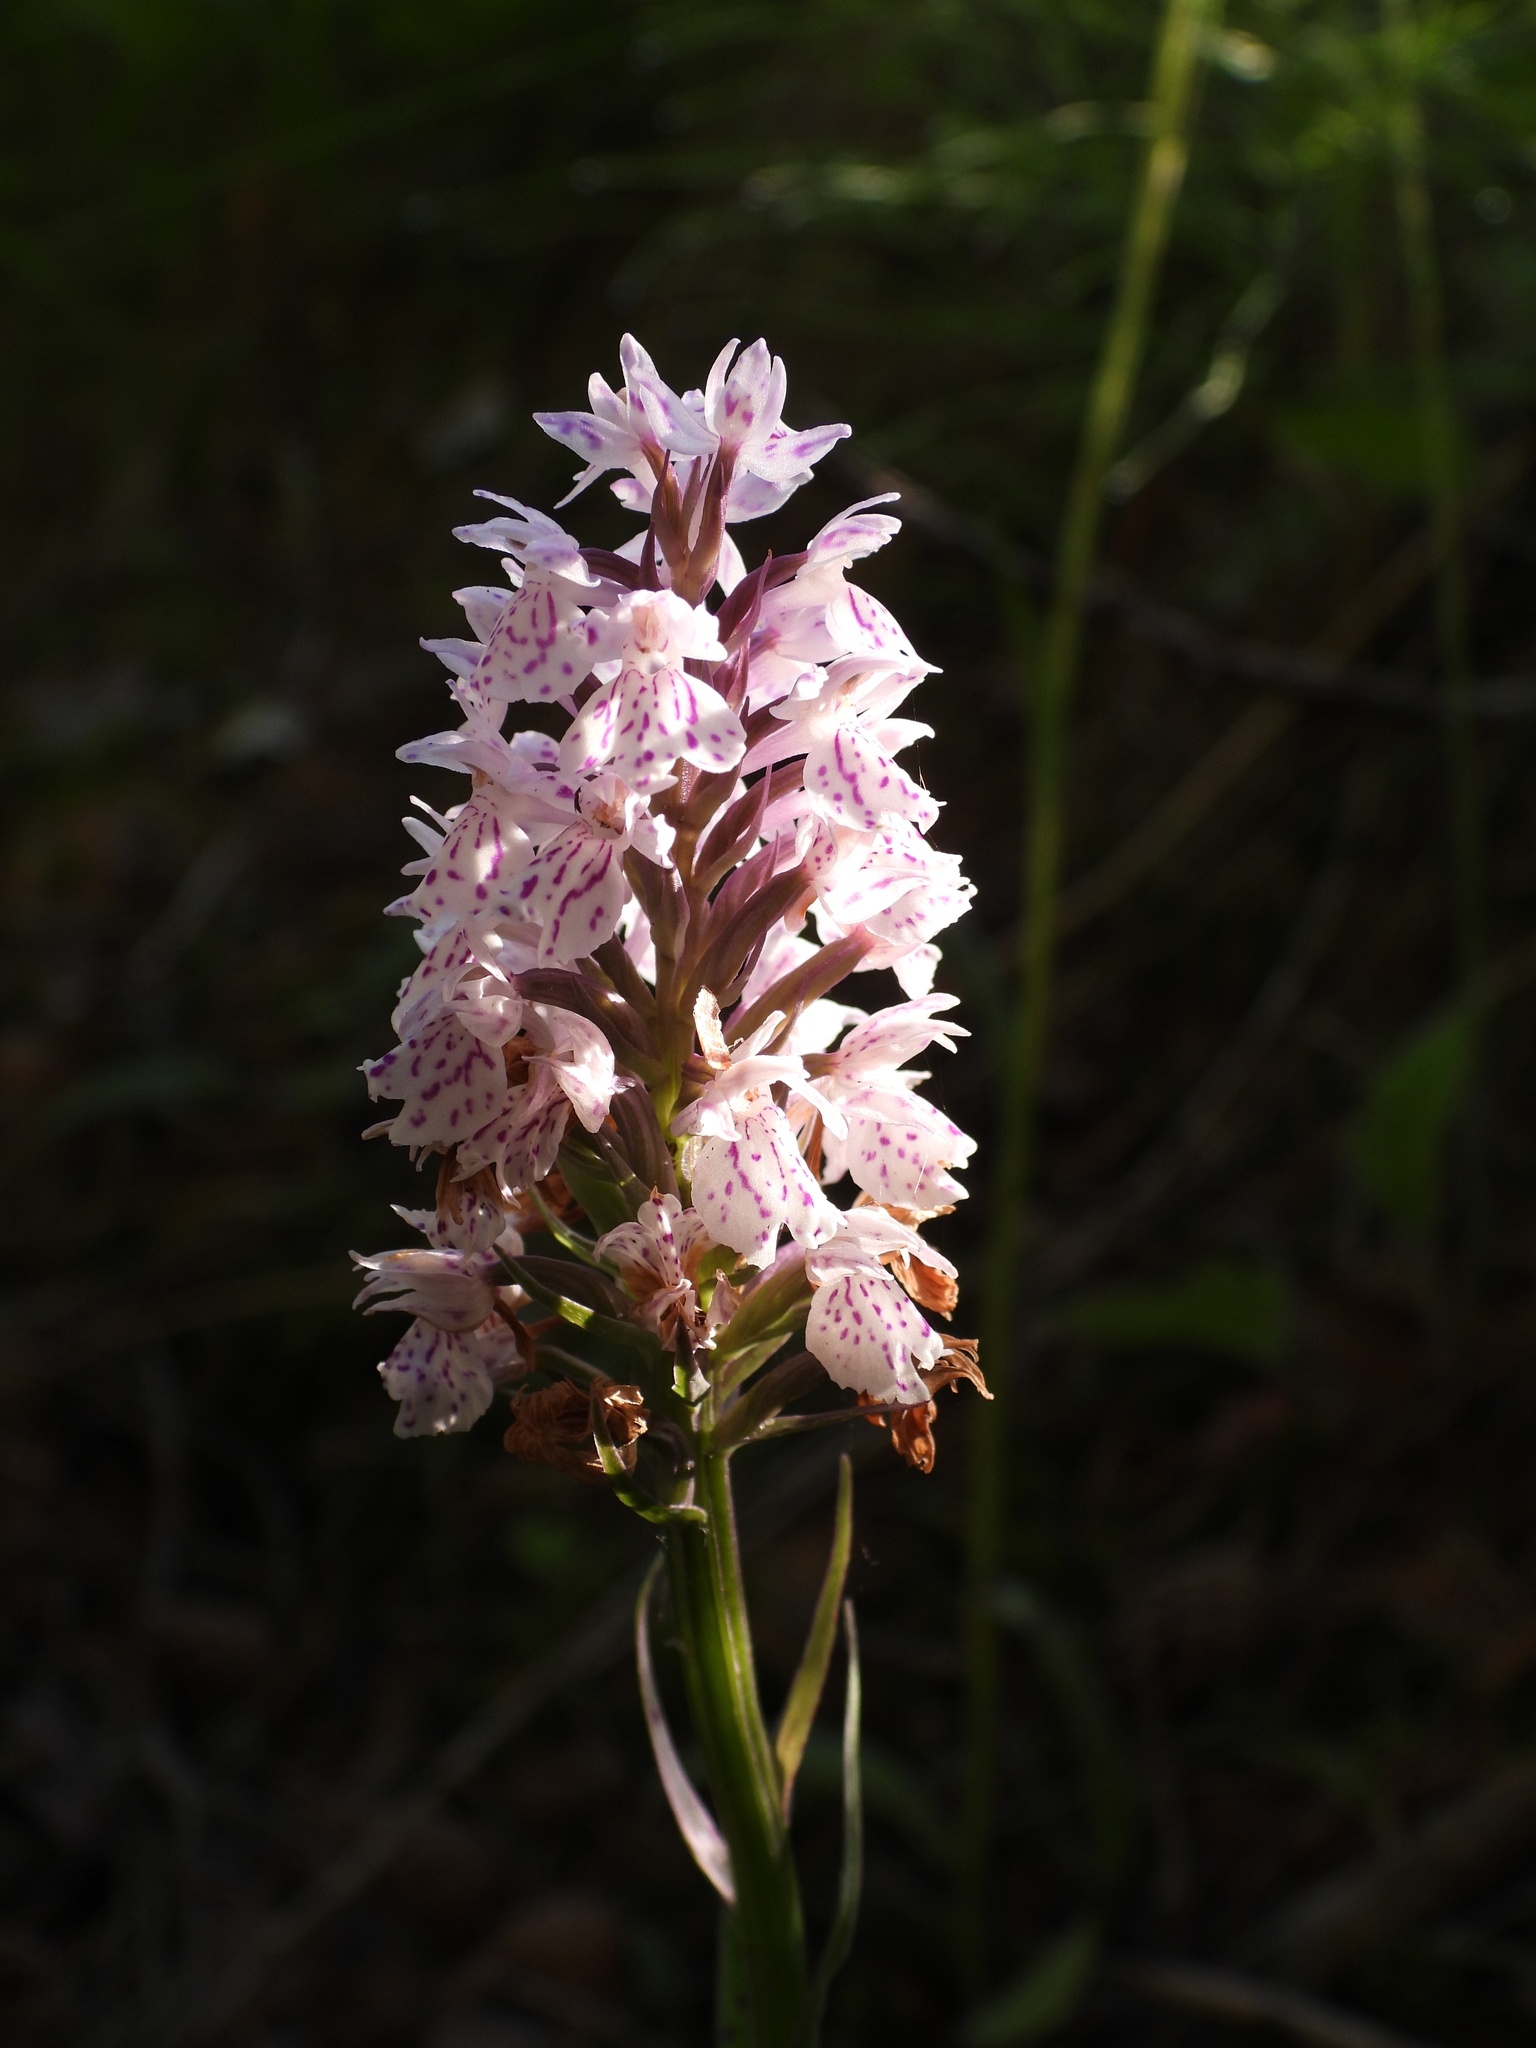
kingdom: Plantae
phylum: Tracheophyta
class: Liliopsida
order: Asparagales
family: Orchidaceae
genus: Dactylorhiza
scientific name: Dactylorhiza maculata
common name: Heath spotted-orchid
